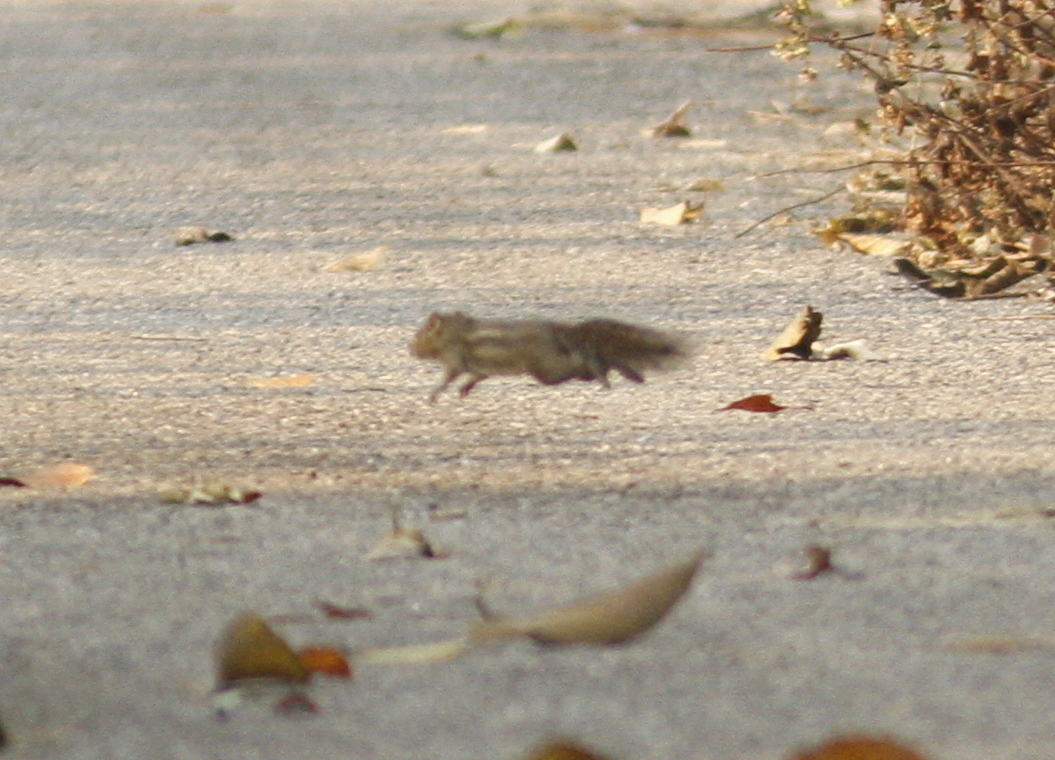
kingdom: Animalia
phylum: Chordata
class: Mammalia
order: Rodentia
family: Sciuridae
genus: Menetes
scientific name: Menetes berdmorei
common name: Indochinese ground squirrel
